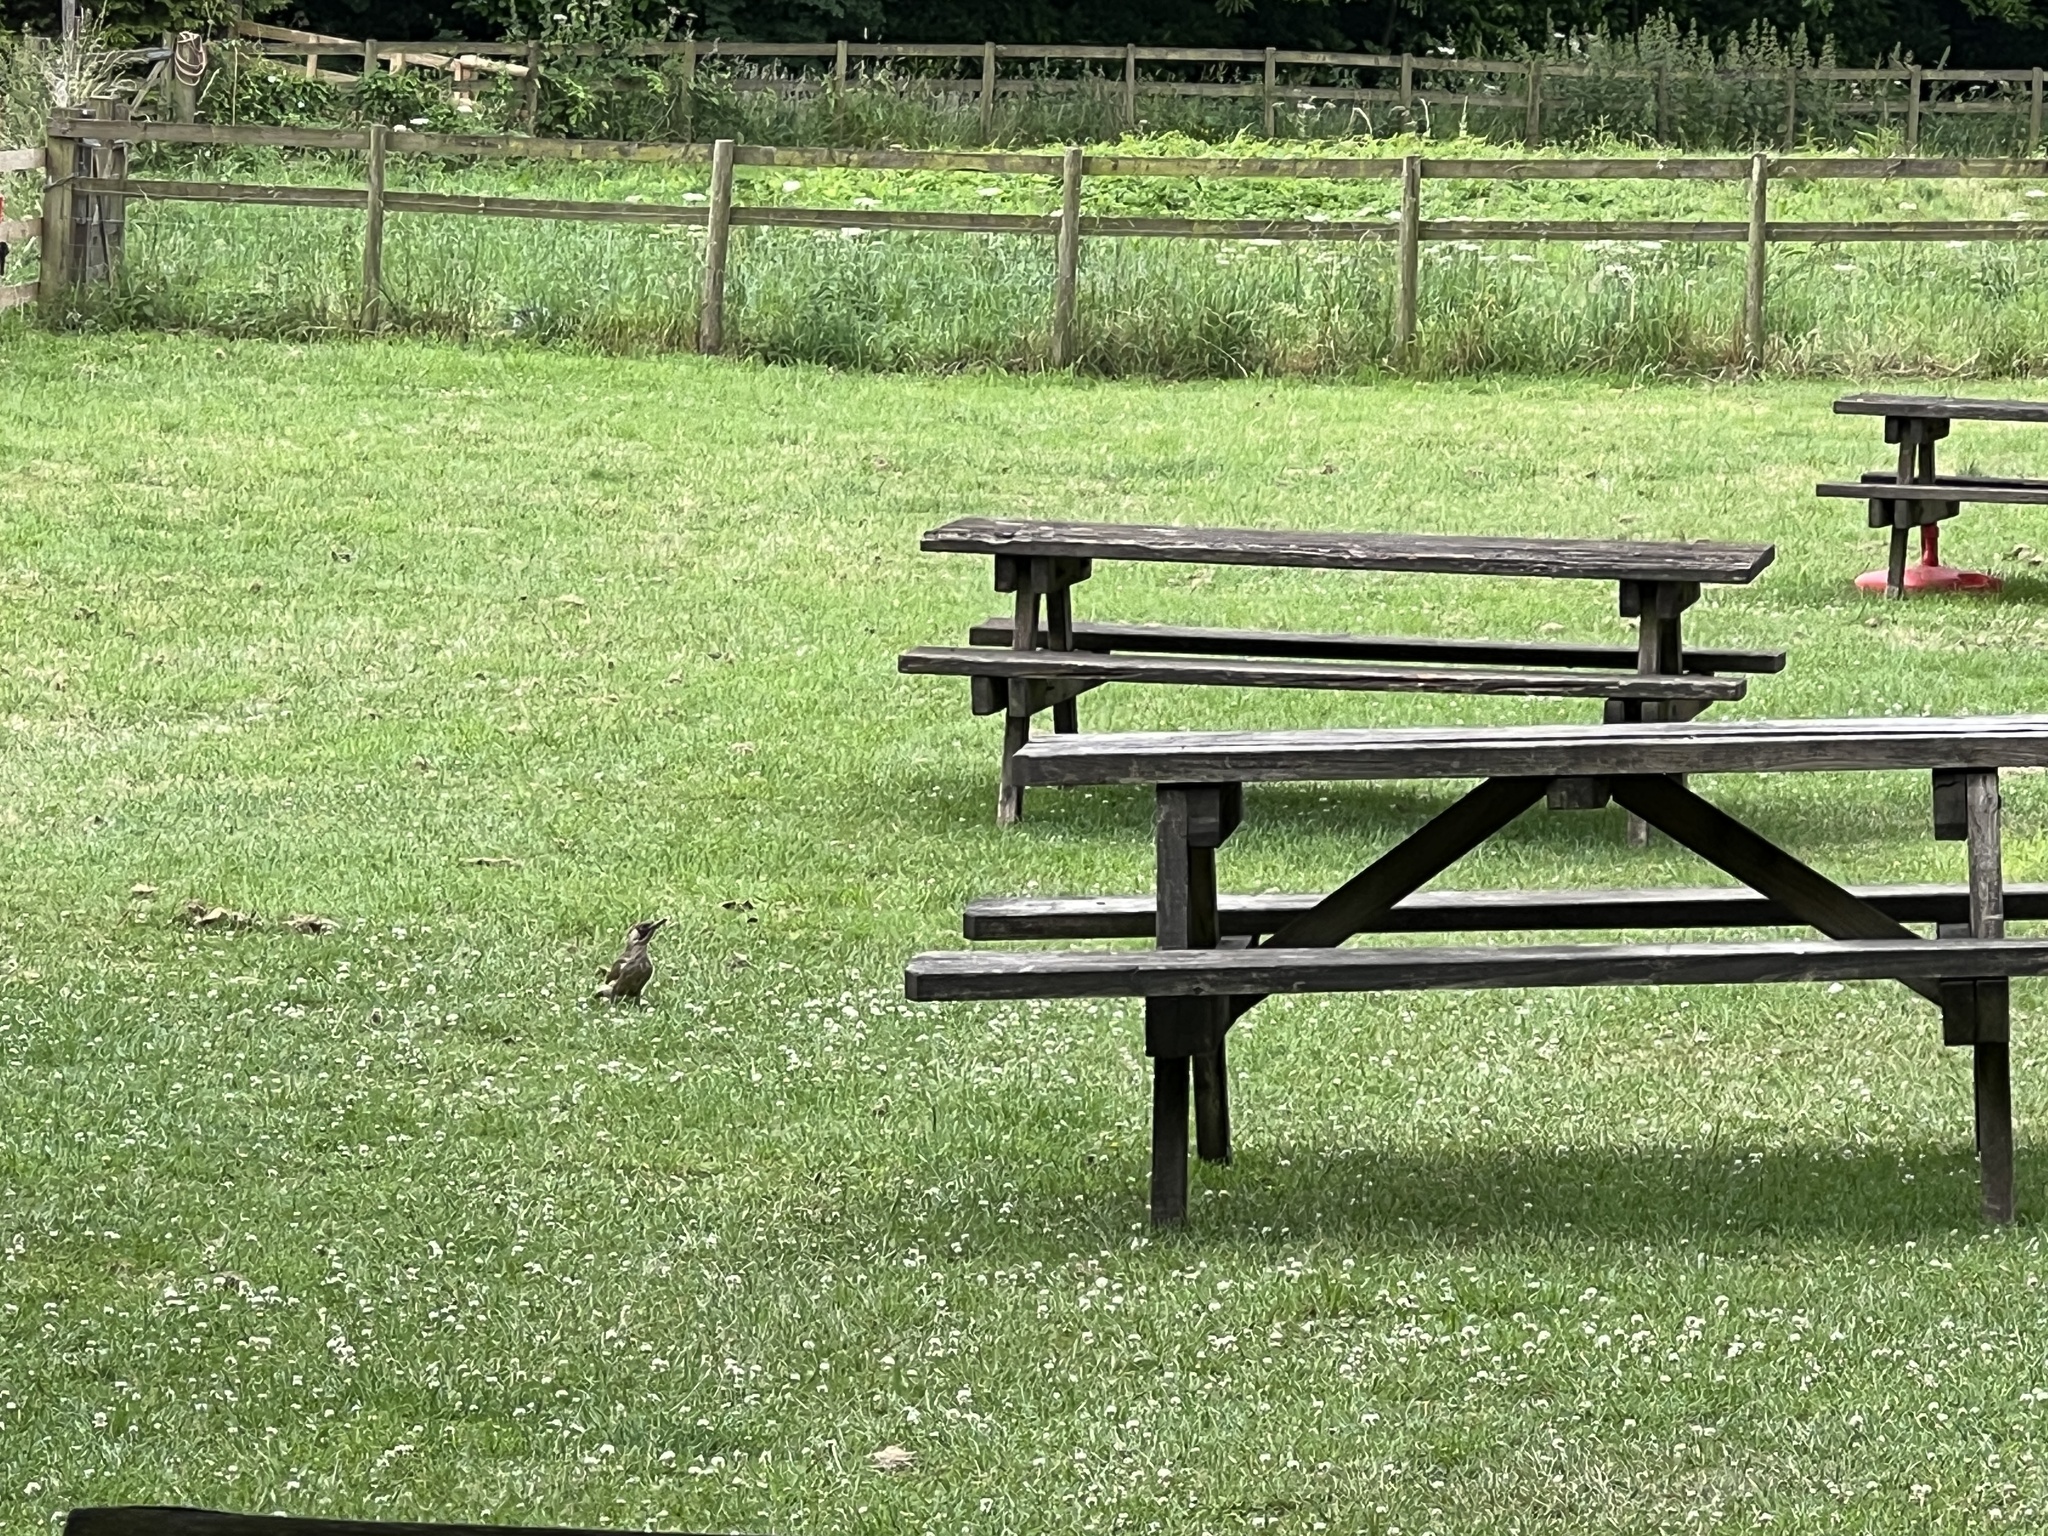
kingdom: Animalia
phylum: Chordata
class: Aves
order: Piciformes
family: Picidae
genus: Picus
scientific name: Picus viridis
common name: European green woodpecker
